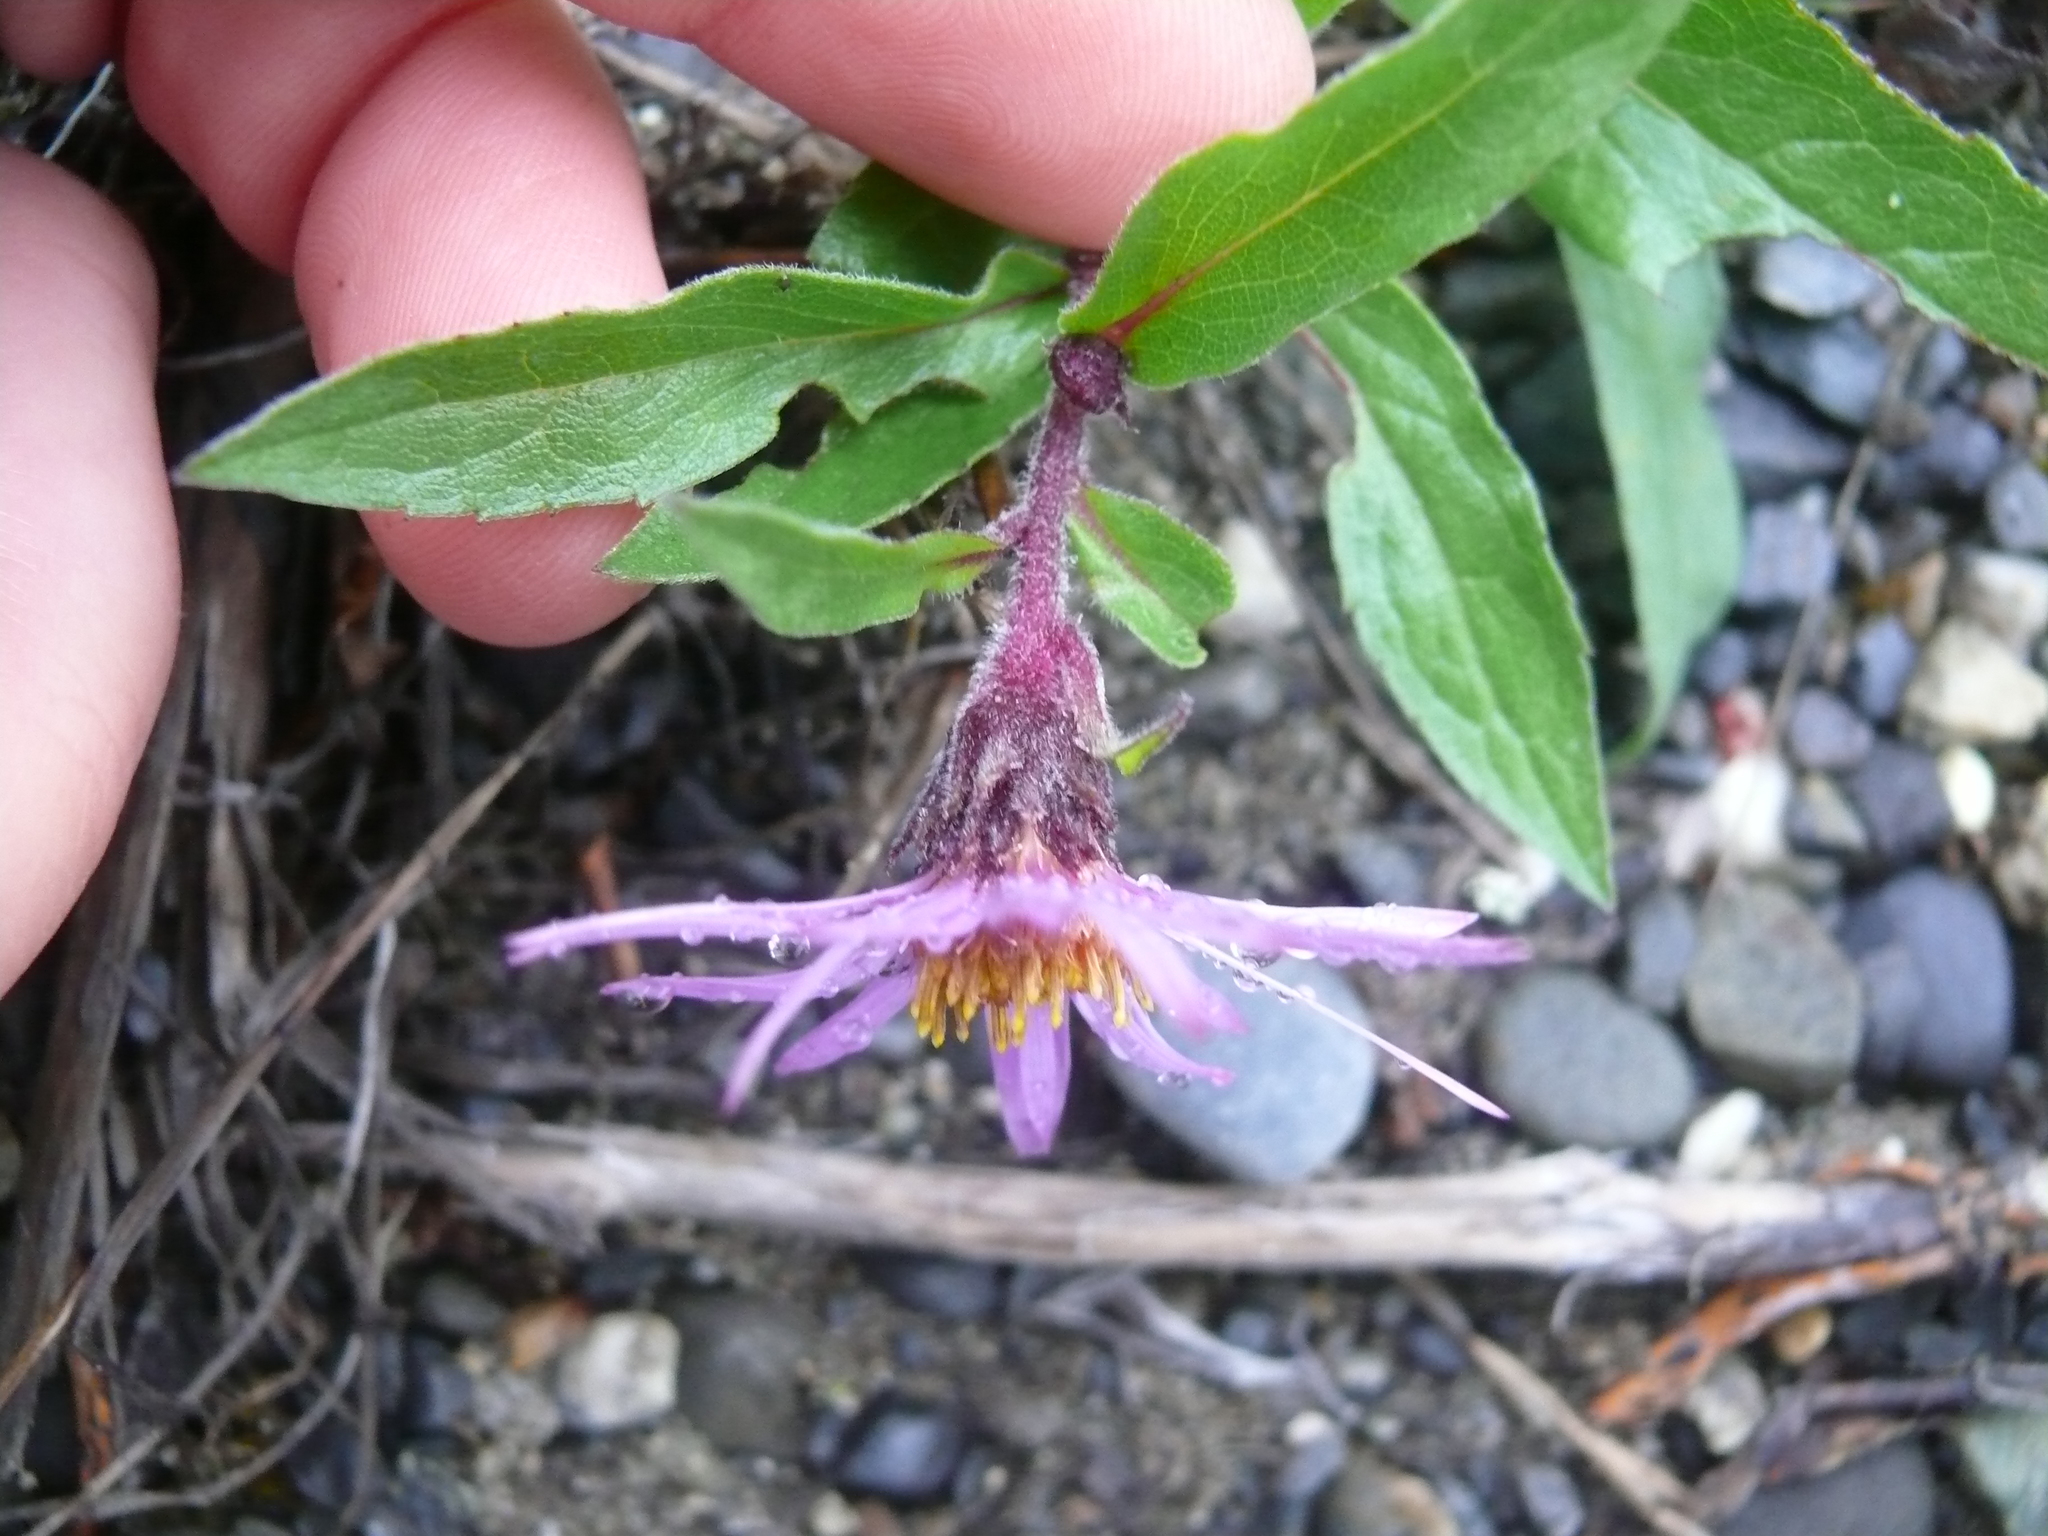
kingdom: Plantae
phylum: Tracheophyta
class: Magnoliopsida
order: Asterales
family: Asteraceae
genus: Eurybia
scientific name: Eurybia sibirica
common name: Arctic aster
